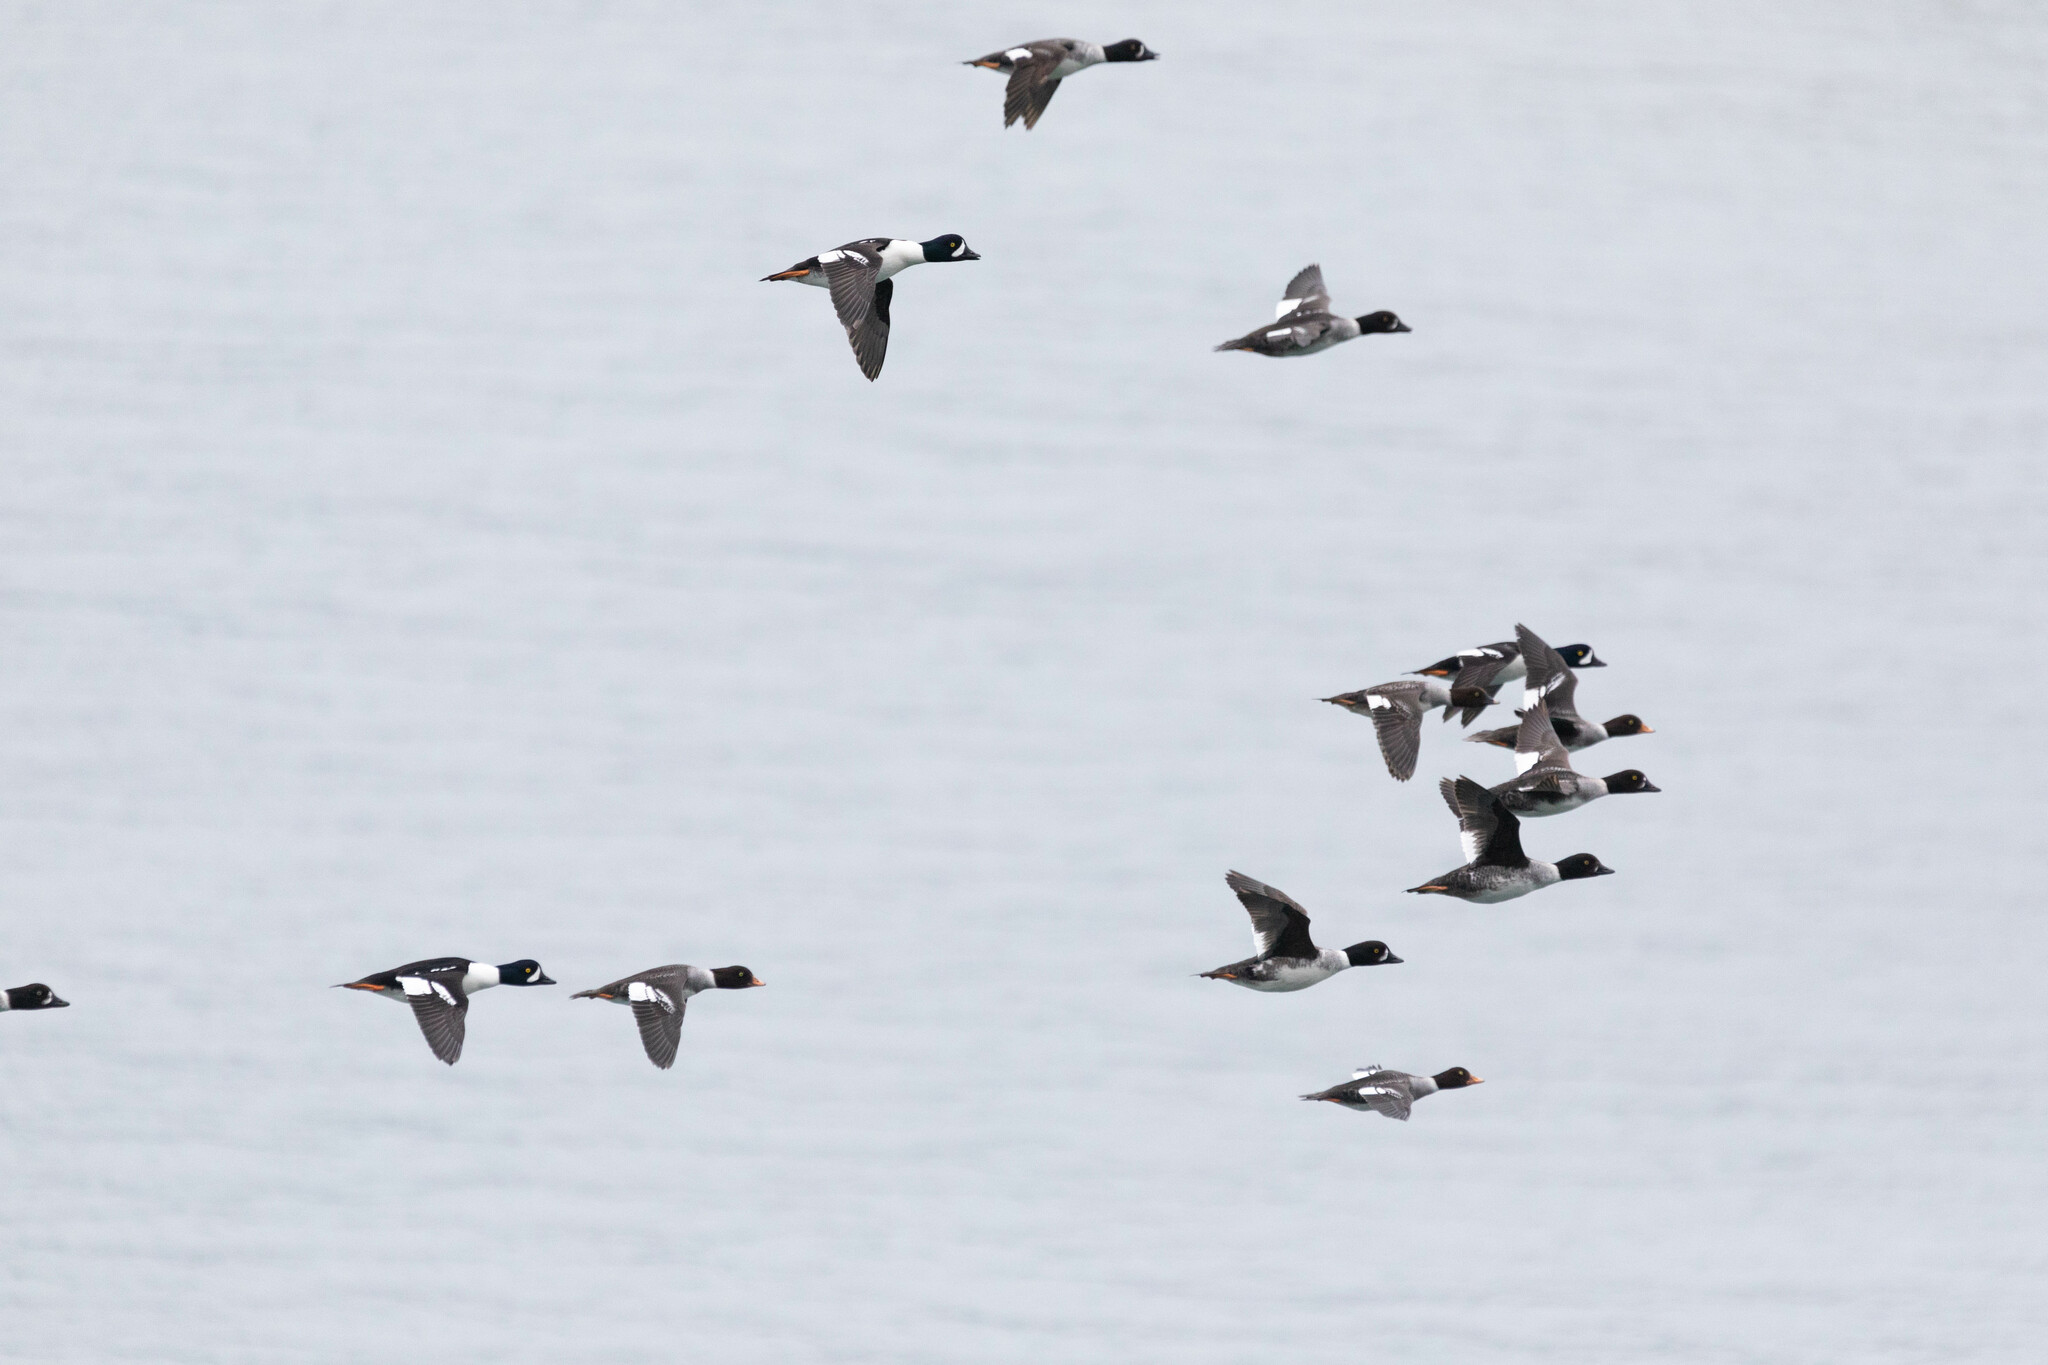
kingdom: Animalia
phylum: Chordata
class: Aves
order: Anseriformes
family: Anatidae
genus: Bucephala
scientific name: Bucephala islandica
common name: Barrow's goldeneye
